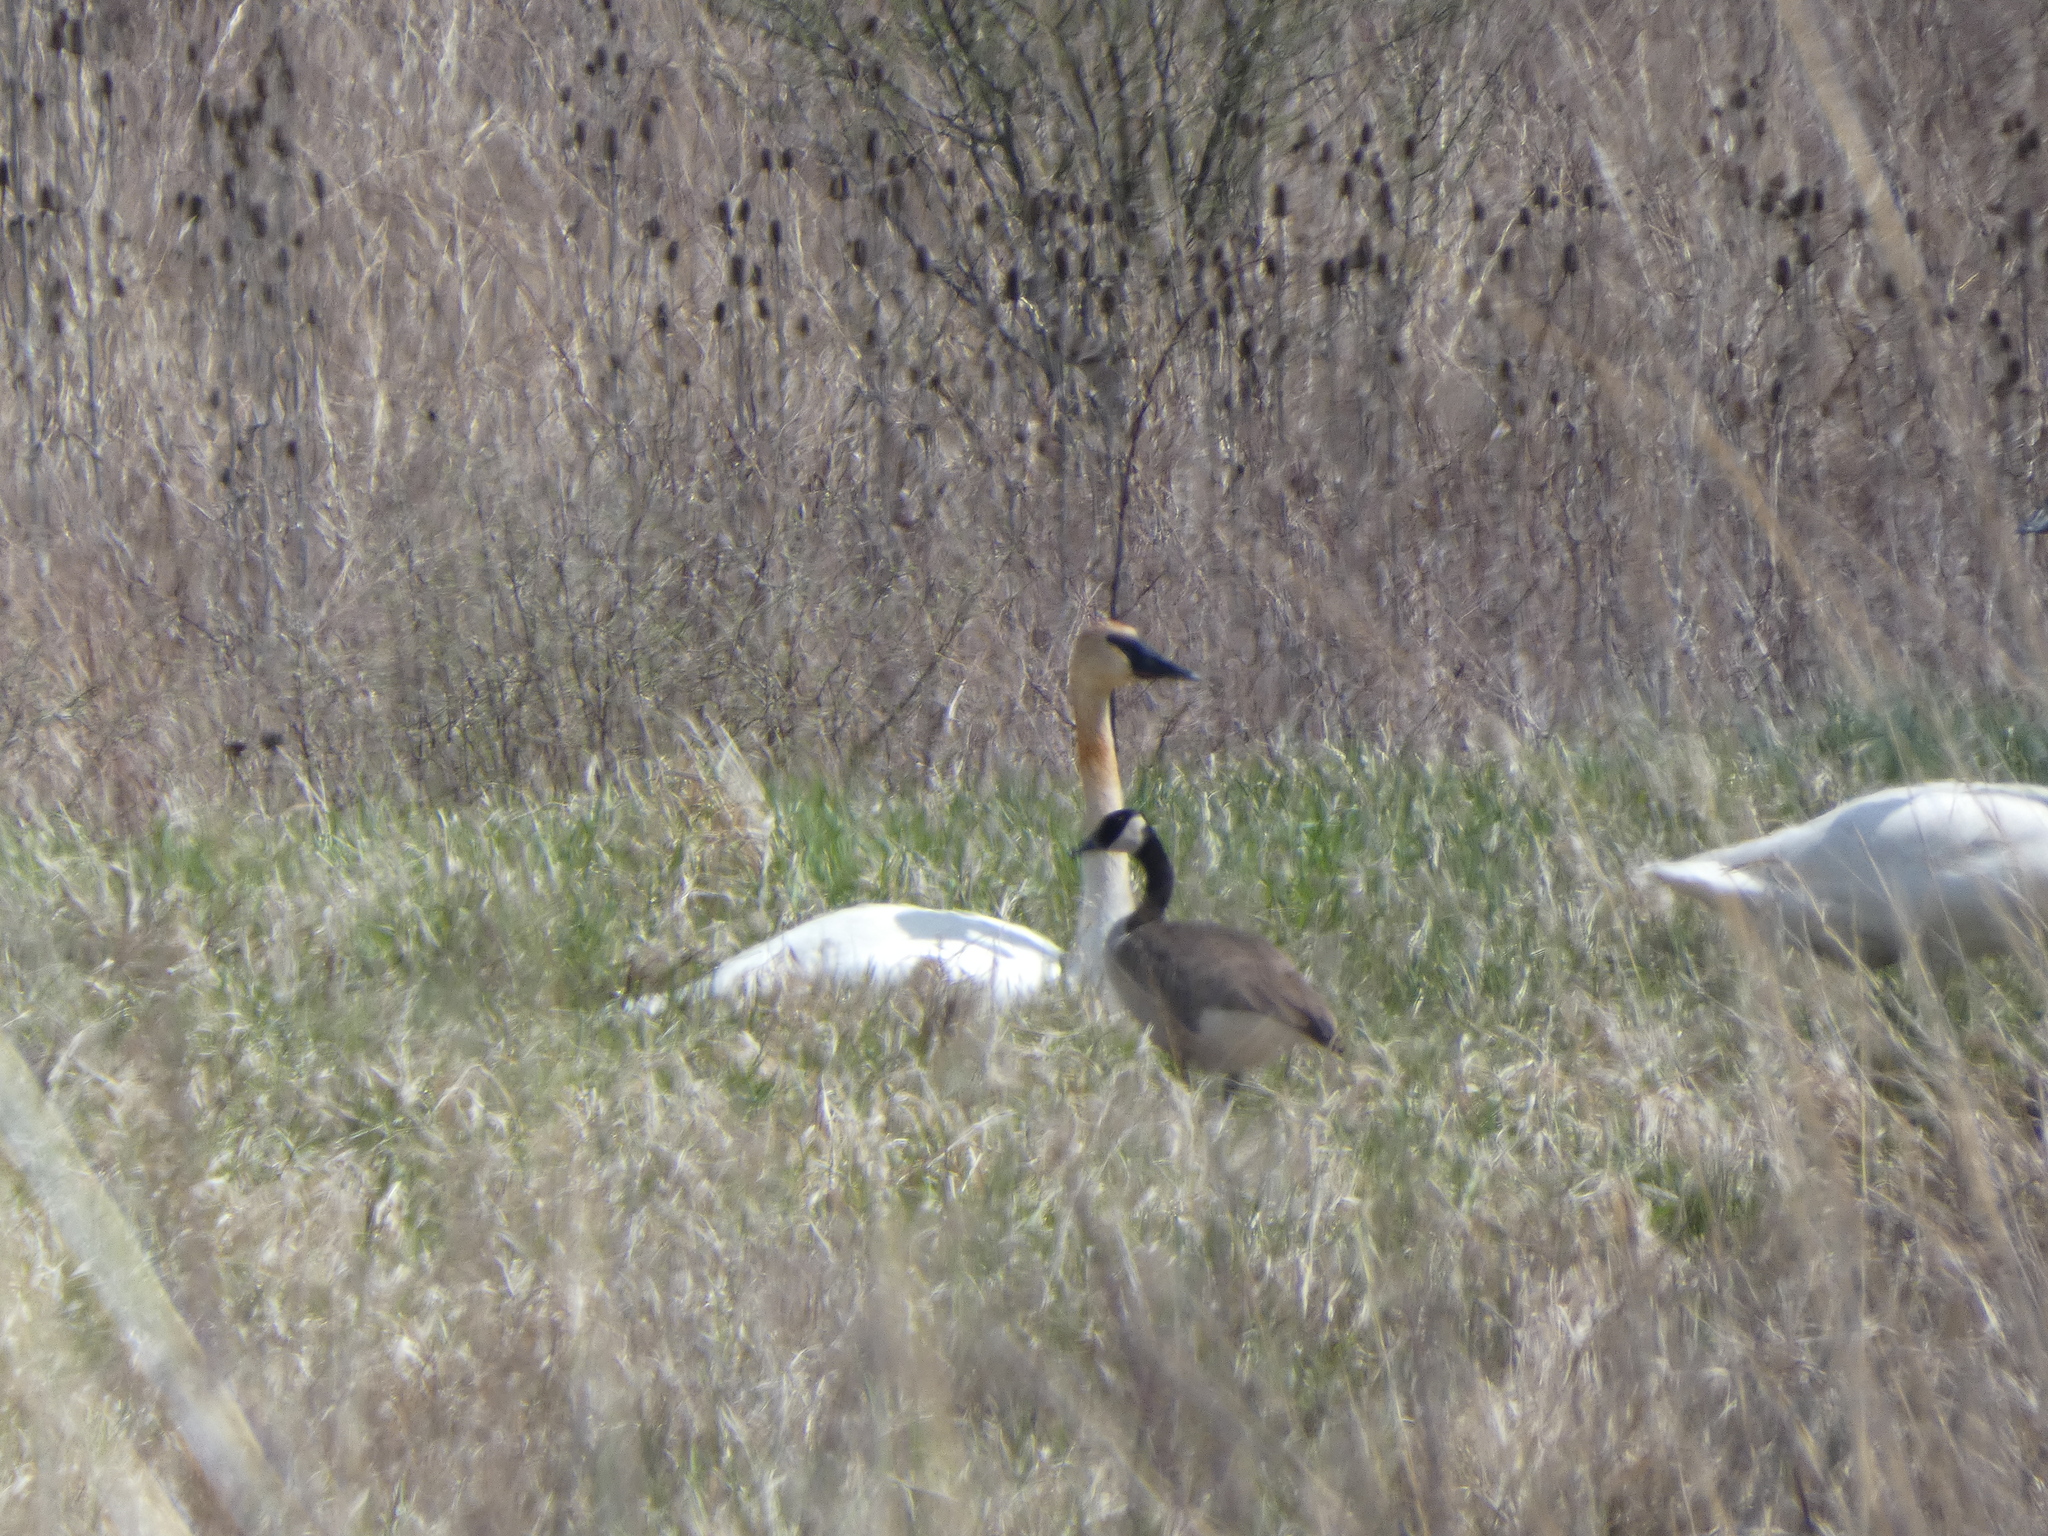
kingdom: Animalia
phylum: Chordata
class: Aves
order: Anseriformes
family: Anatidae
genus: Cygnus
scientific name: Cygnus buccinator
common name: Trumpeter swan
